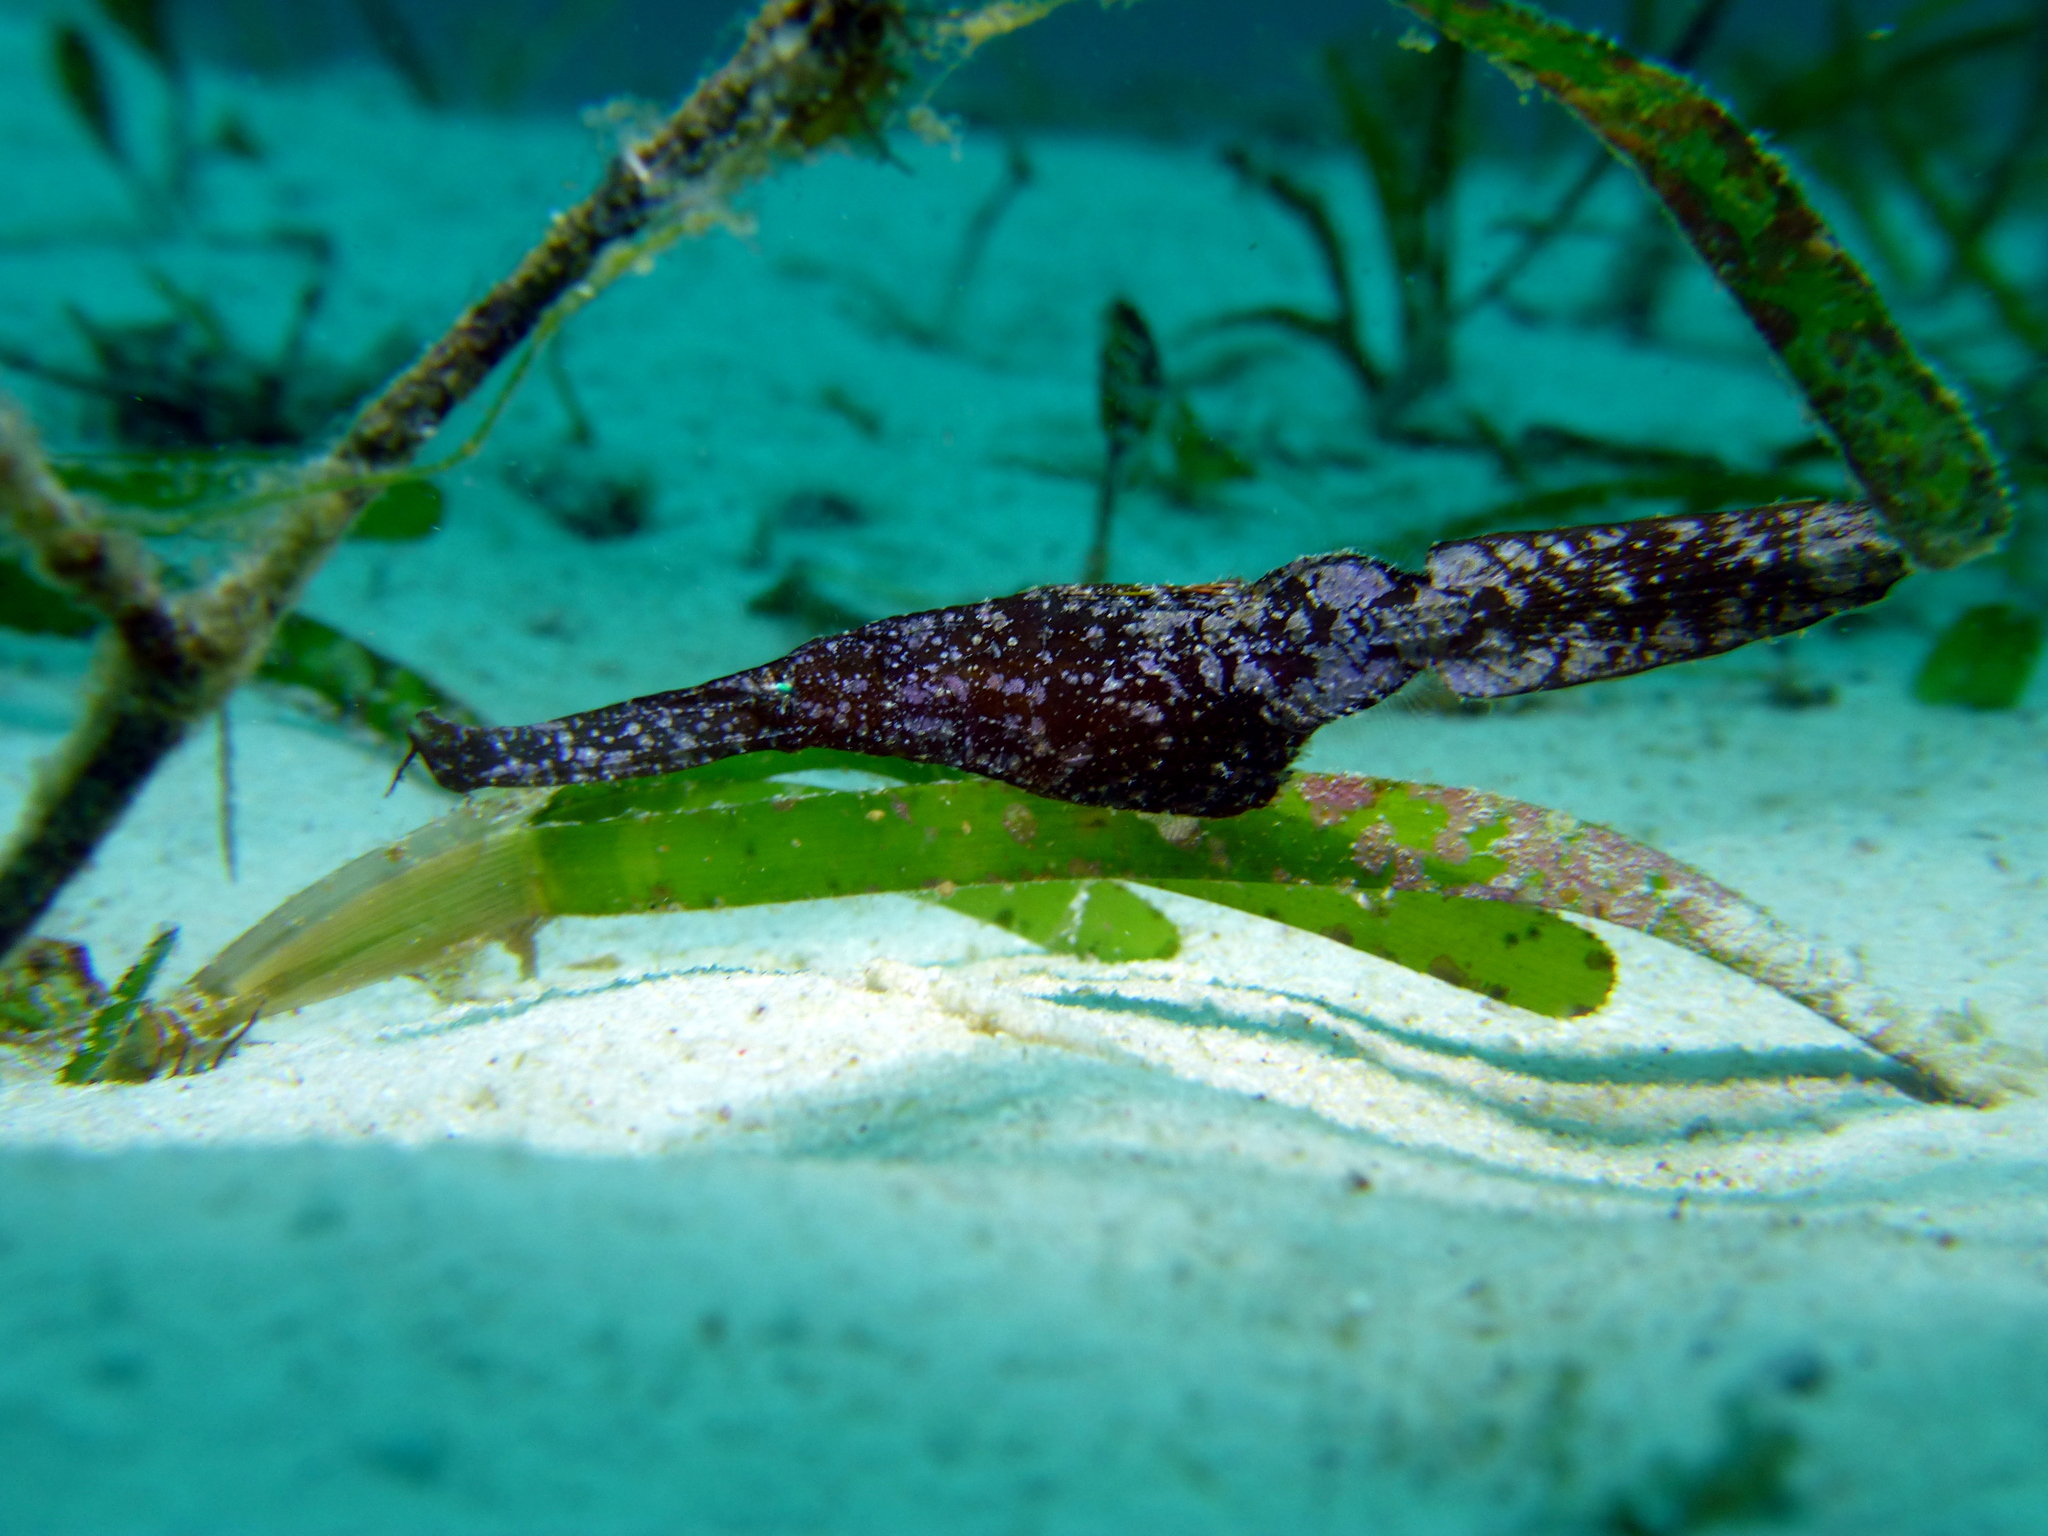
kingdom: Animalia
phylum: Chordata
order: Syngnathiformes
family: Solenostomidae
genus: Solenostomus
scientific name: Solenostomus cyanopterus
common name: Blue-finned ghost pipefish
